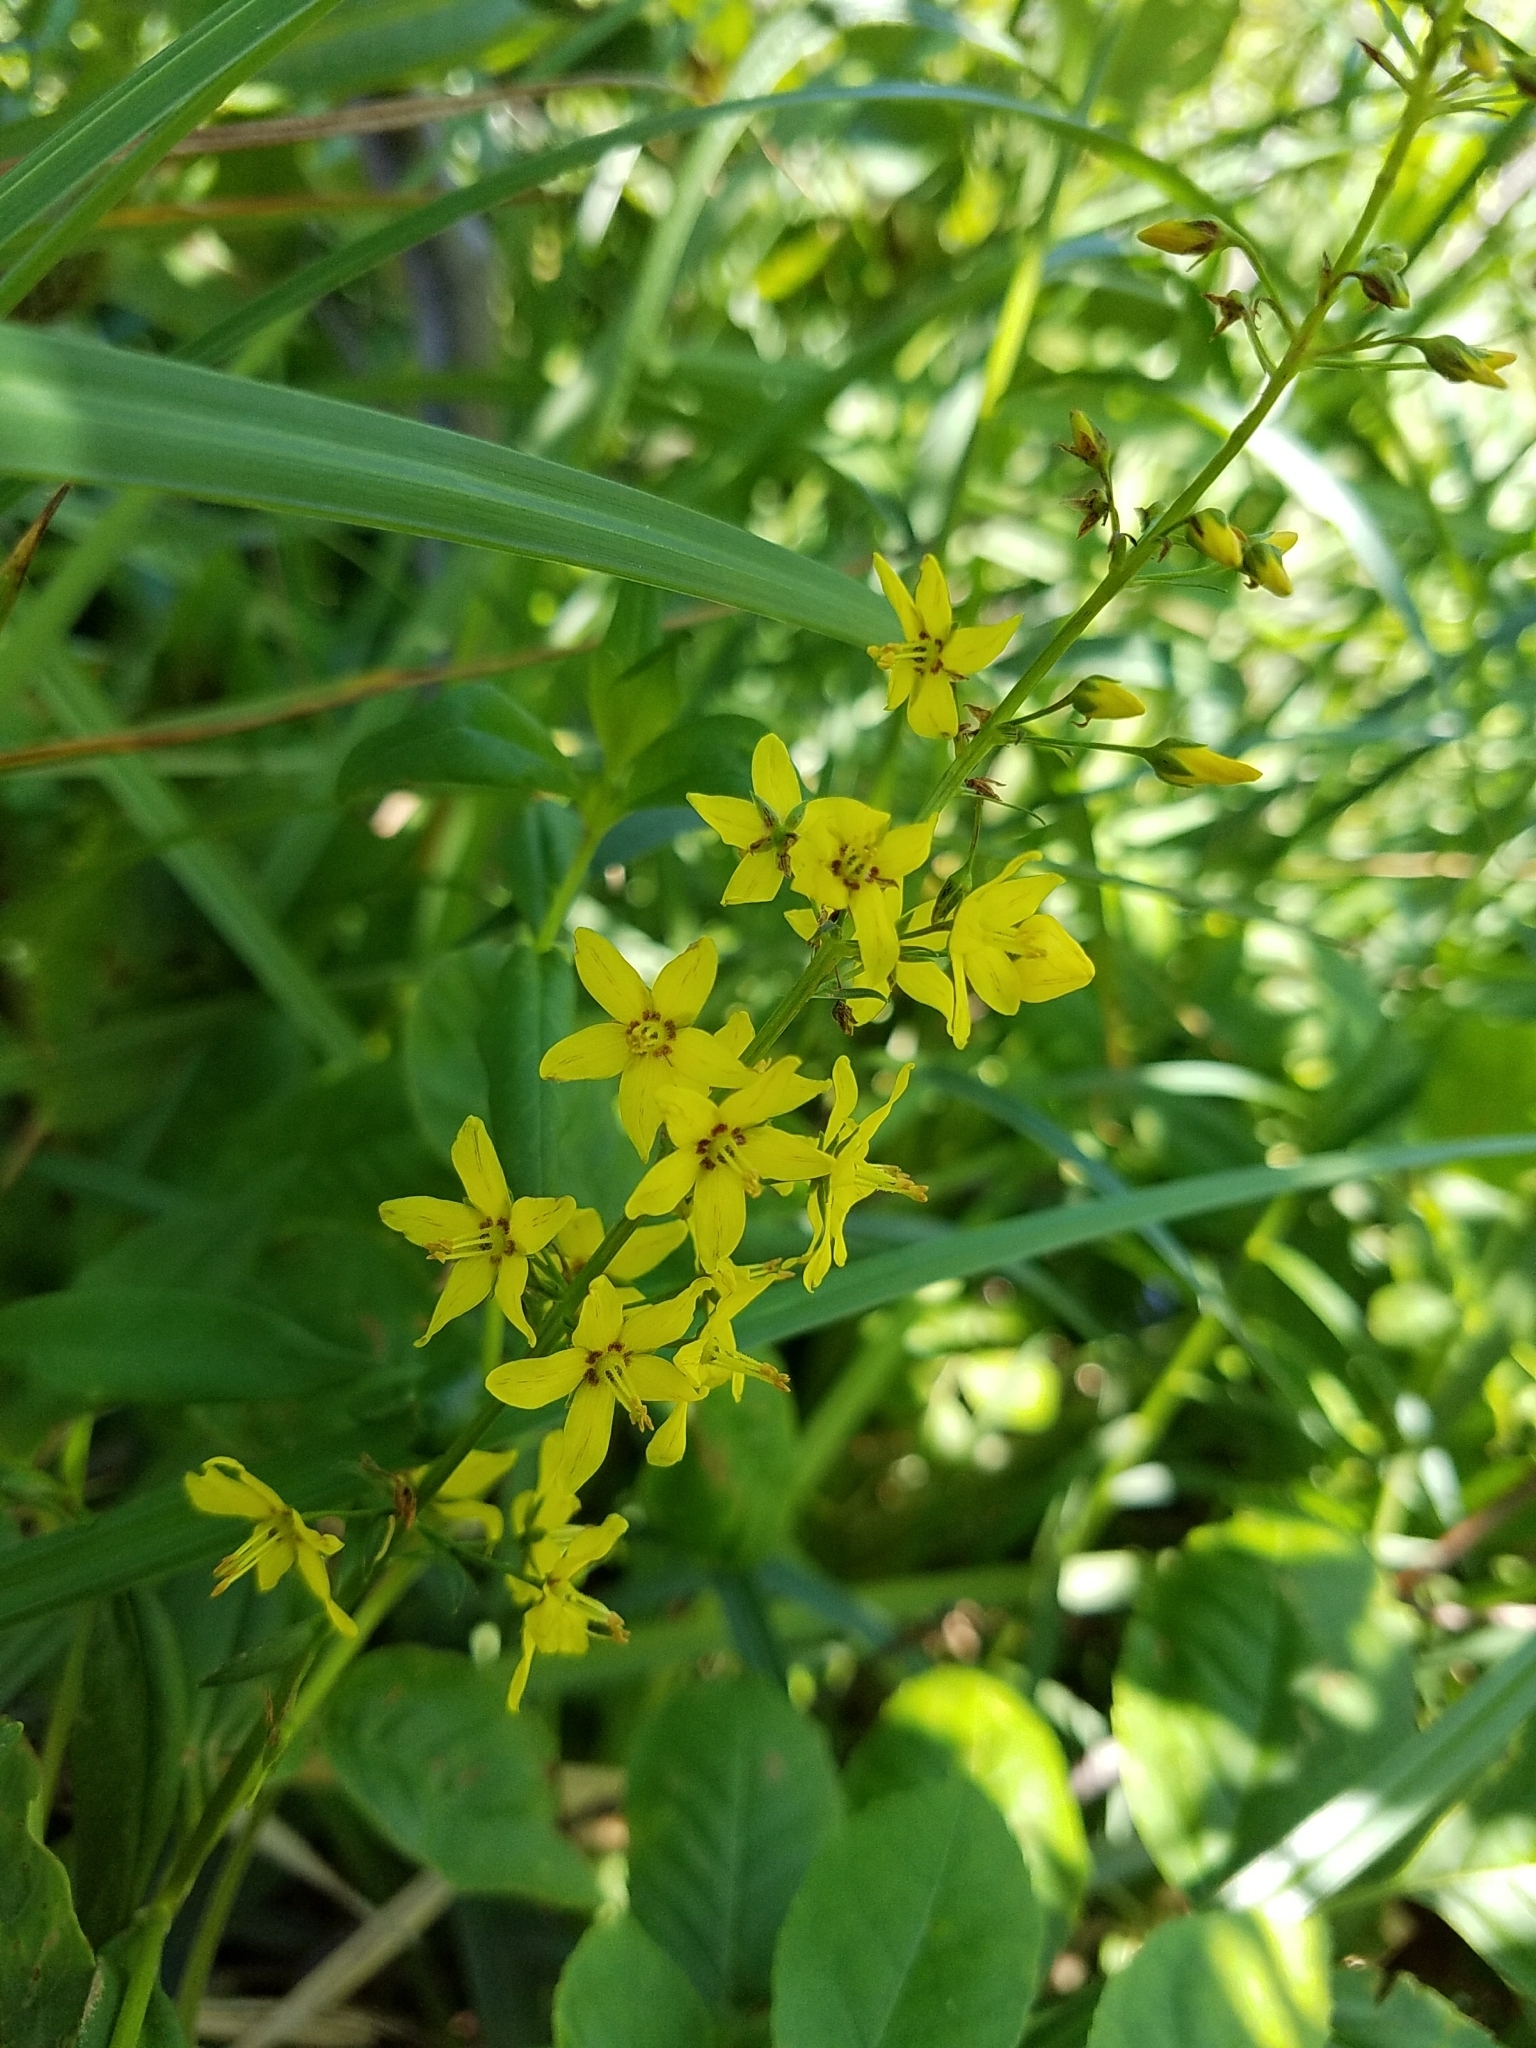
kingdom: Plantae
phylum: Tracheophyta
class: Magnoliopsida
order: Ericales
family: Primulaceae
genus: Lysimachia
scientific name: Lysimachia terrestris
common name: Lake loosestrife
